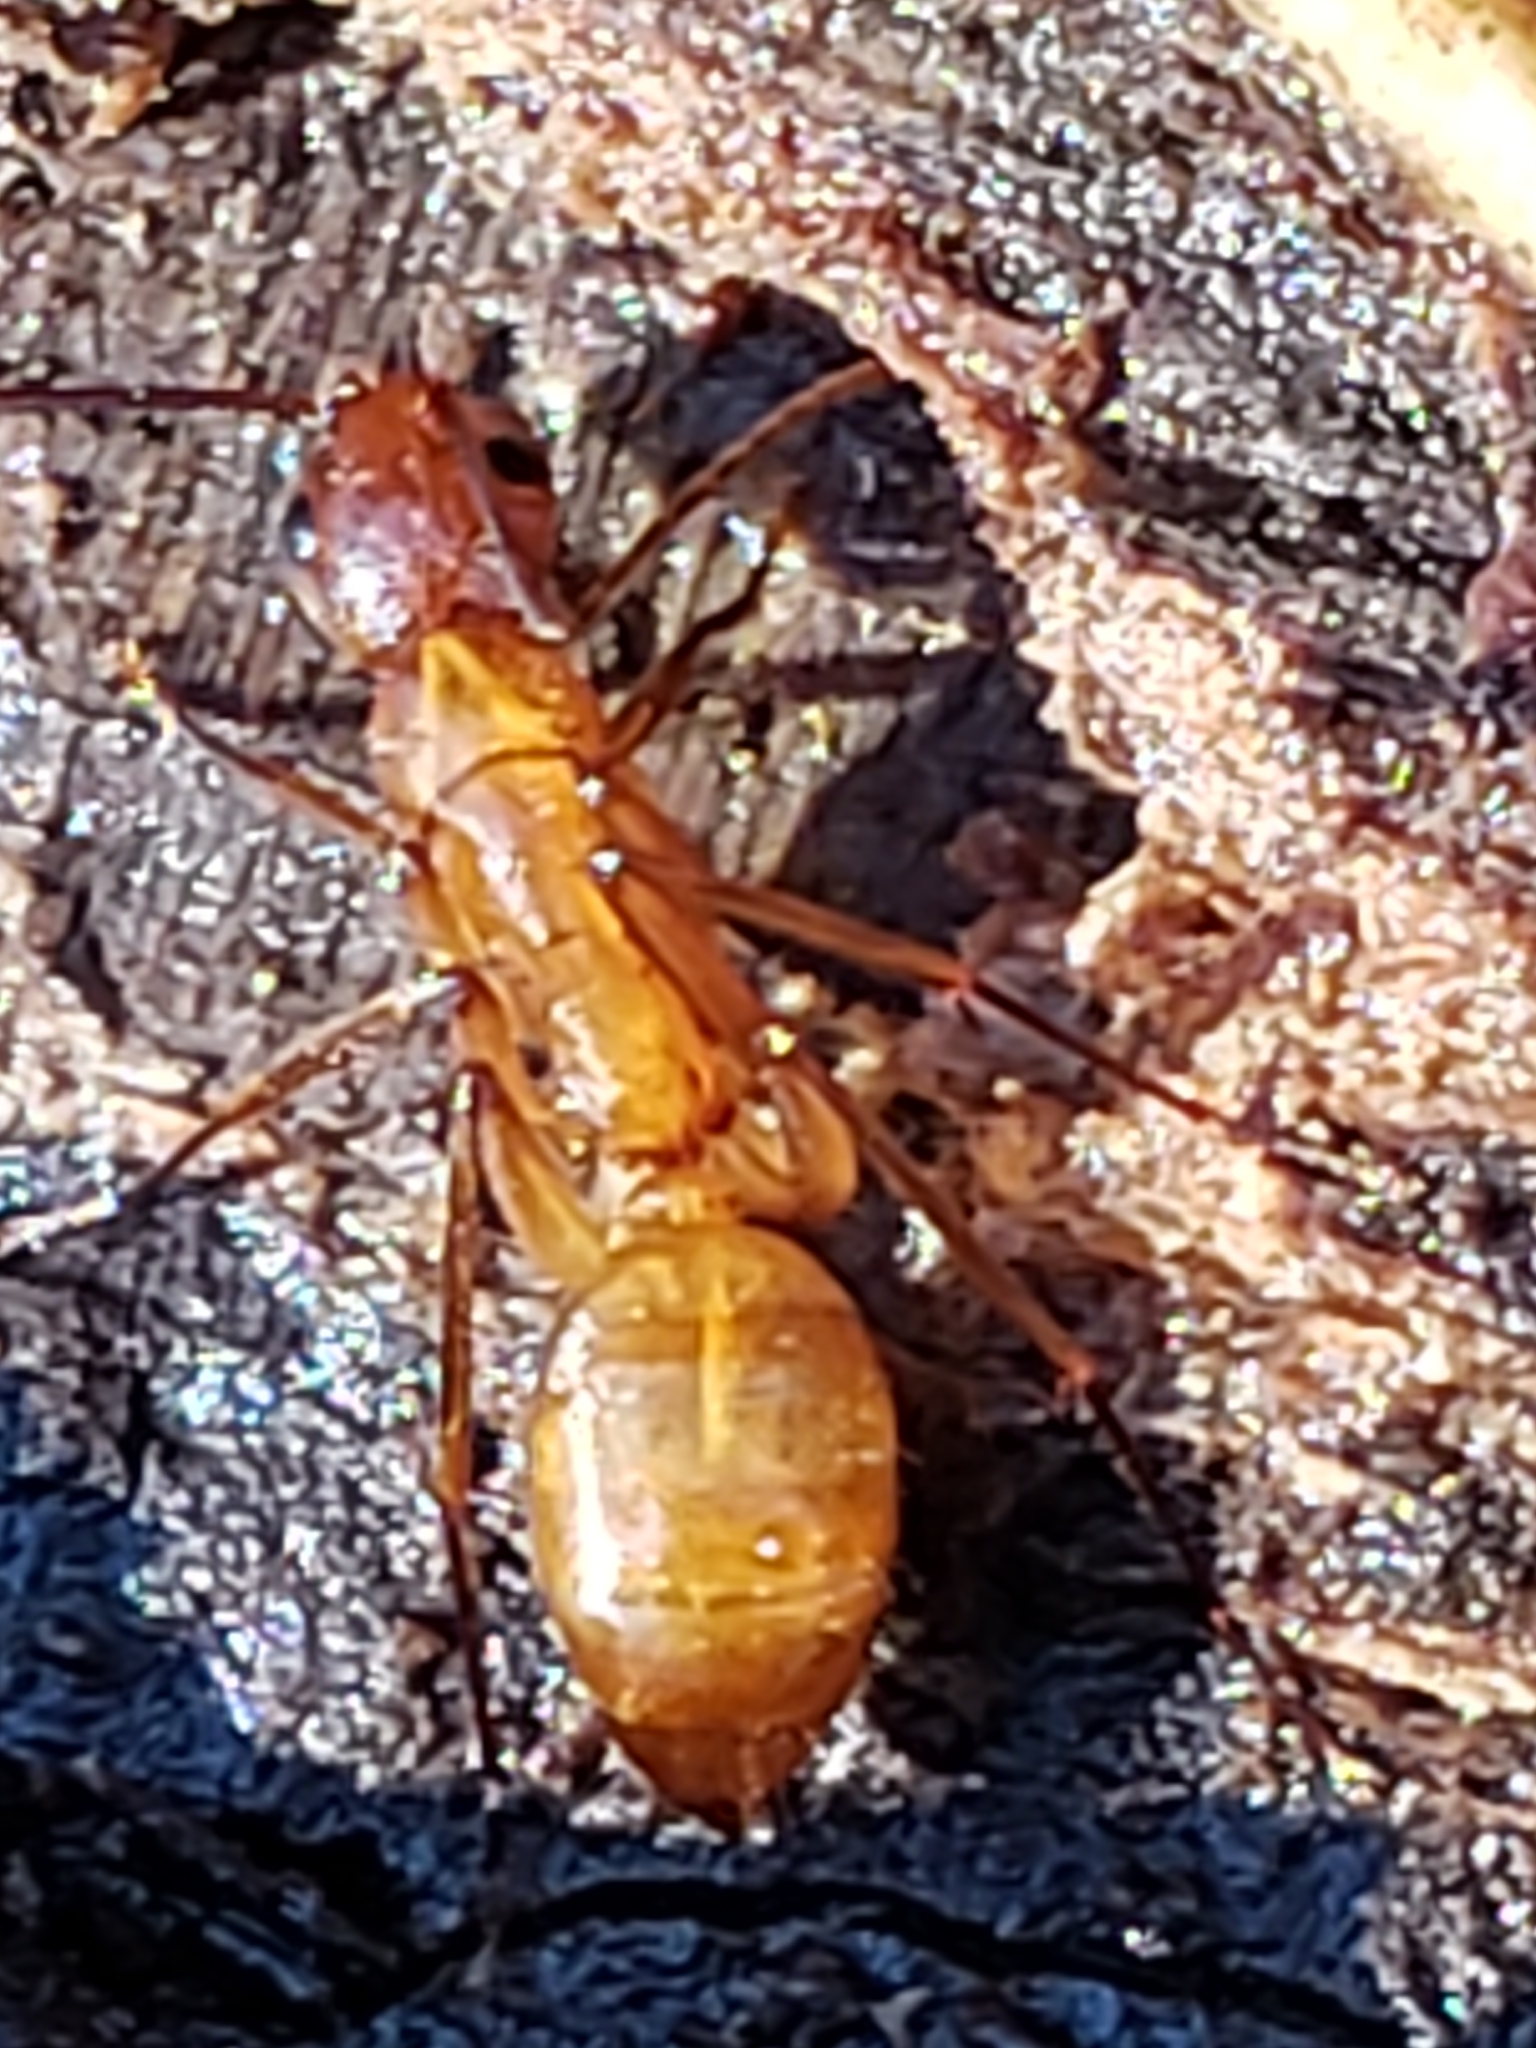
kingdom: Animalia
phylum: Arthropoda
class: Insecta
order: Hymenoptera
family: Formicidae
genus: Camponotus
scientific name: Camponotus castaneus
